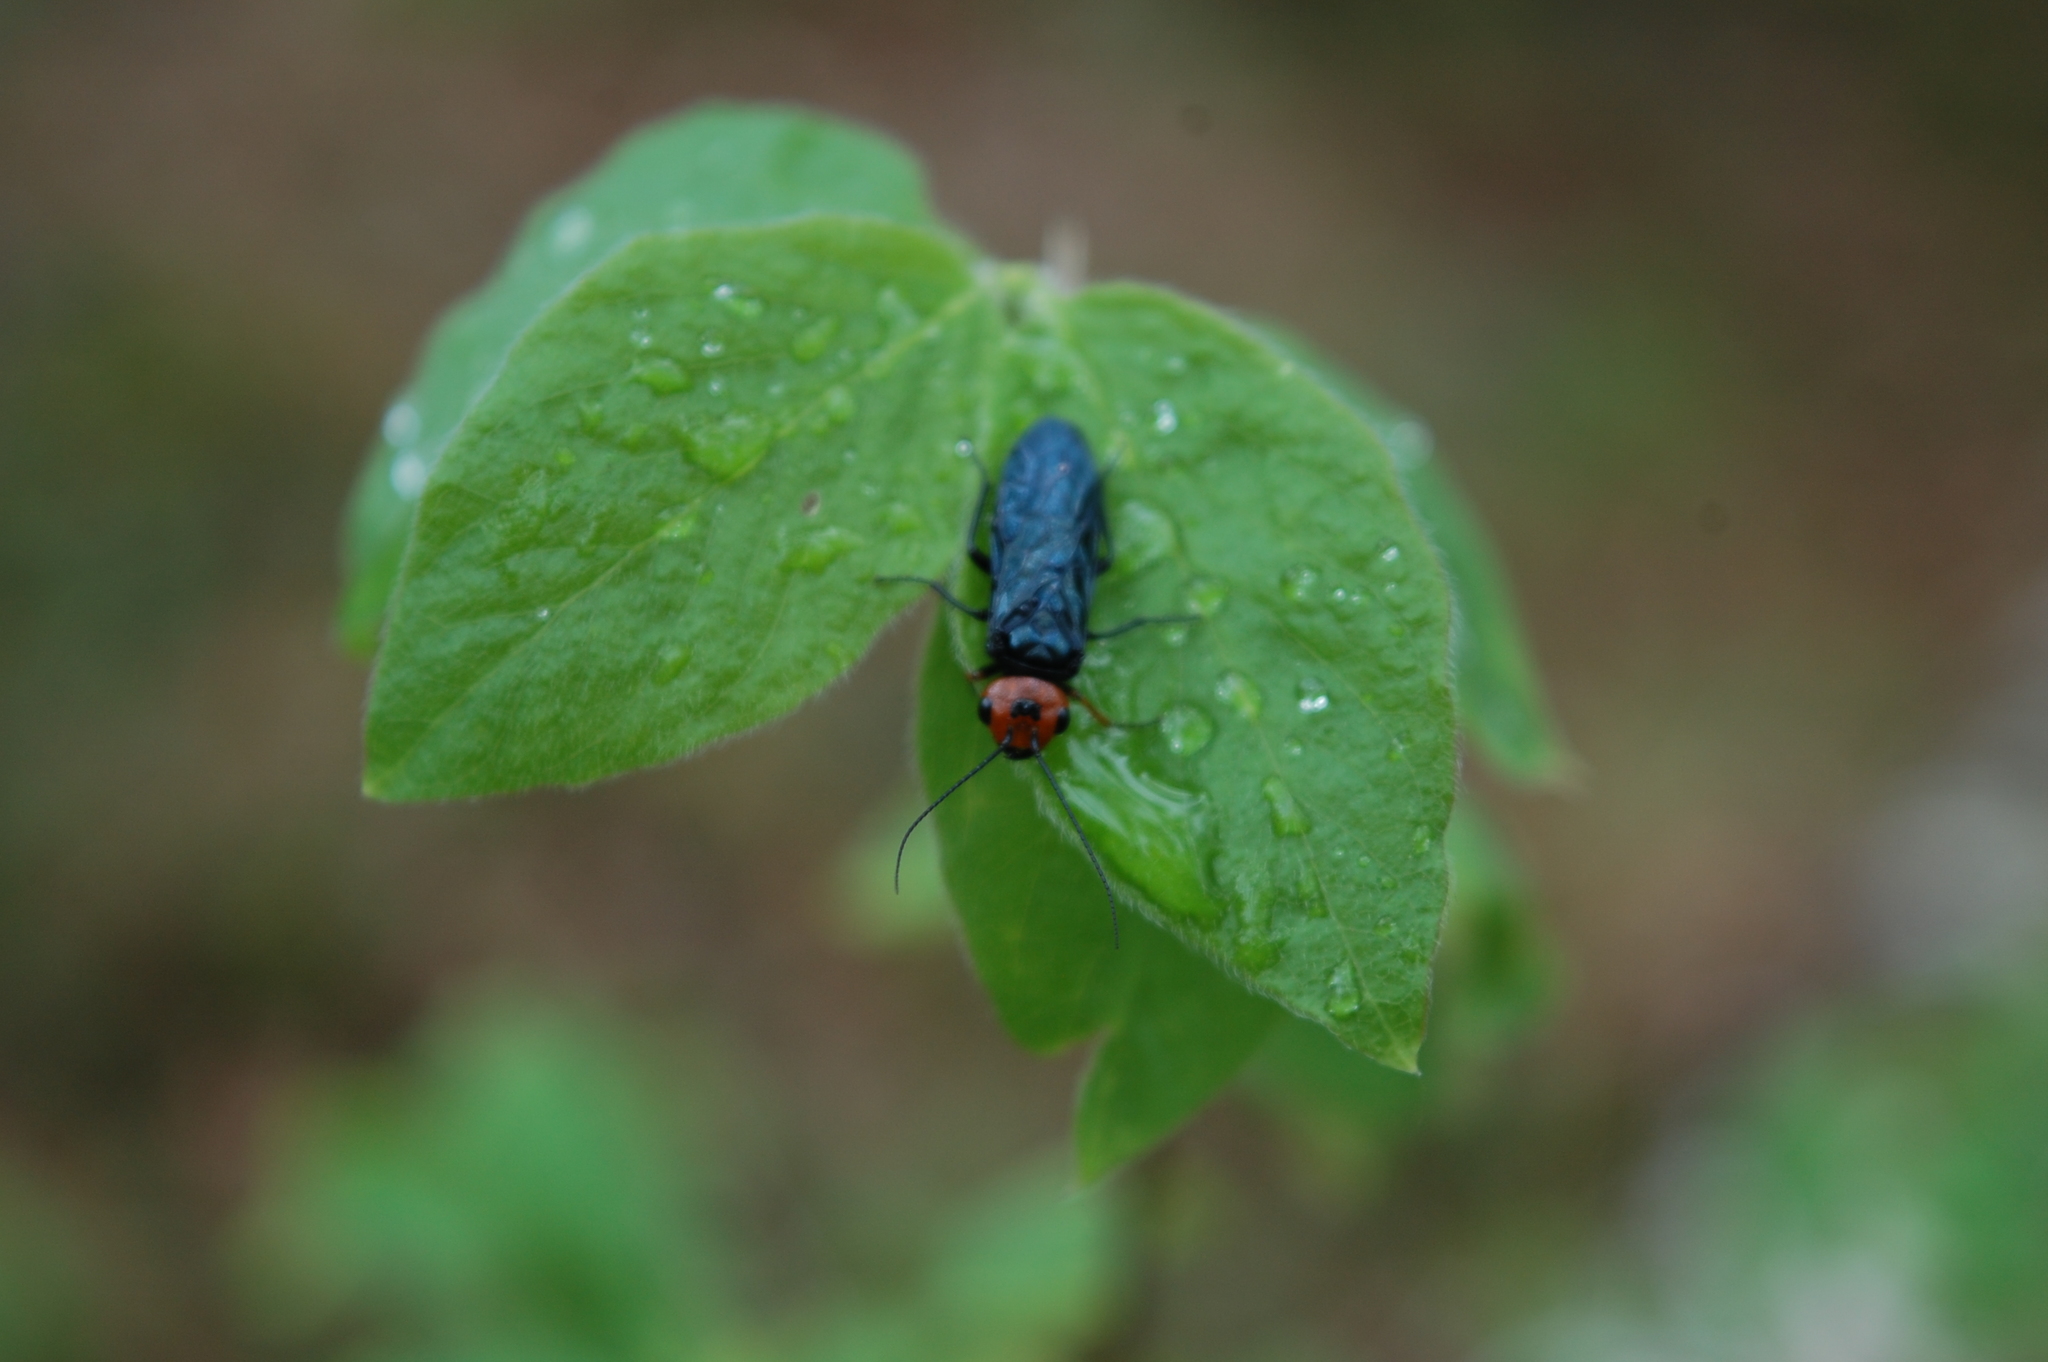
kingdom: Animalia
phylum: Arthropoda
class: Insecta
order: Hymenoptera
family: Pamphiliidae
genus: Acantholyda
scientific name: Acantholyda erythrocephala
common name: Pine false webworm
